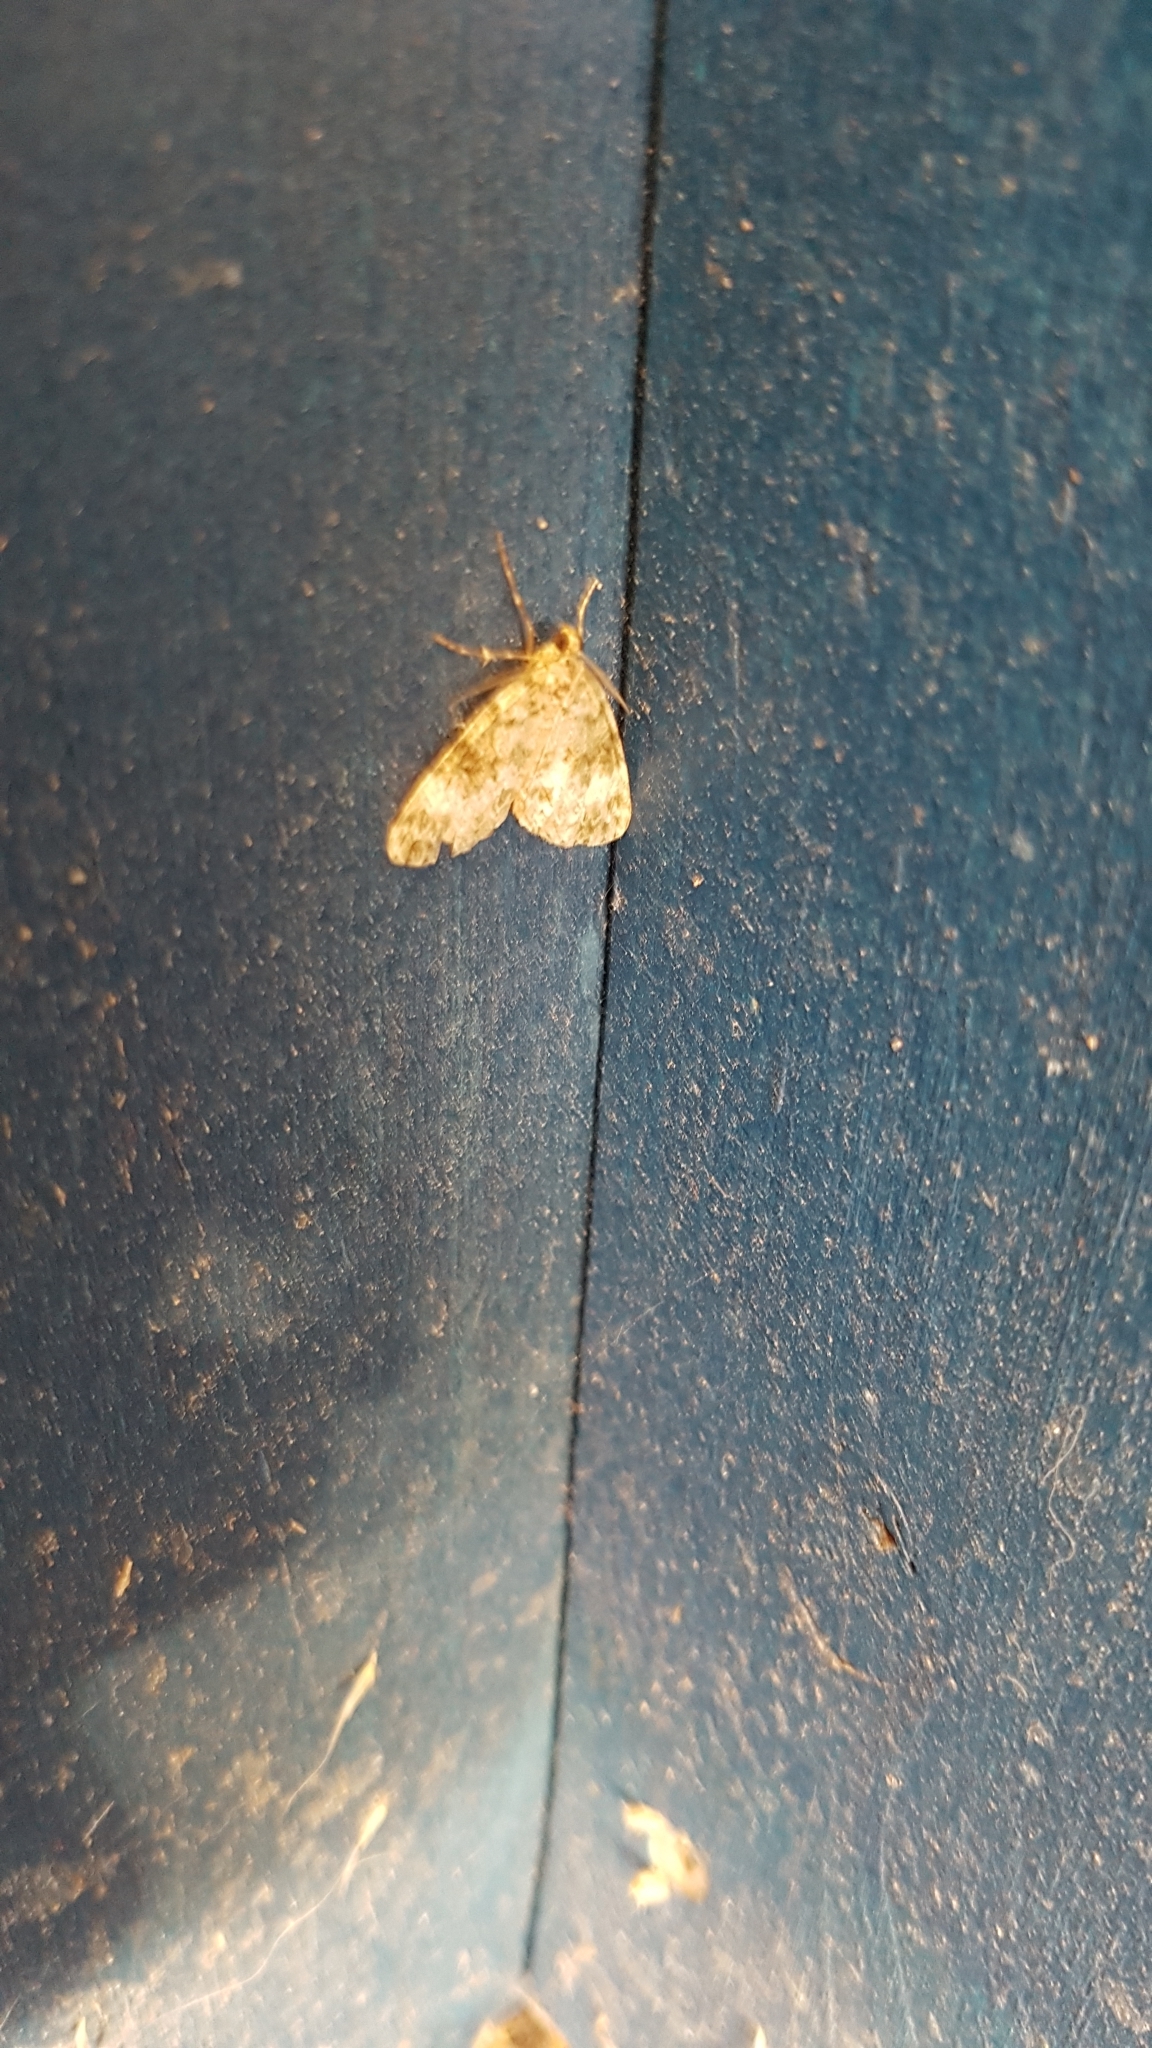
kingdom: Animalia
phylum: Arthropoda
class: Insecta
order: Lepidoptera
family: Geometridae
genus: Pseudocoremia
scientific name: Pseudocoremia indistincta
